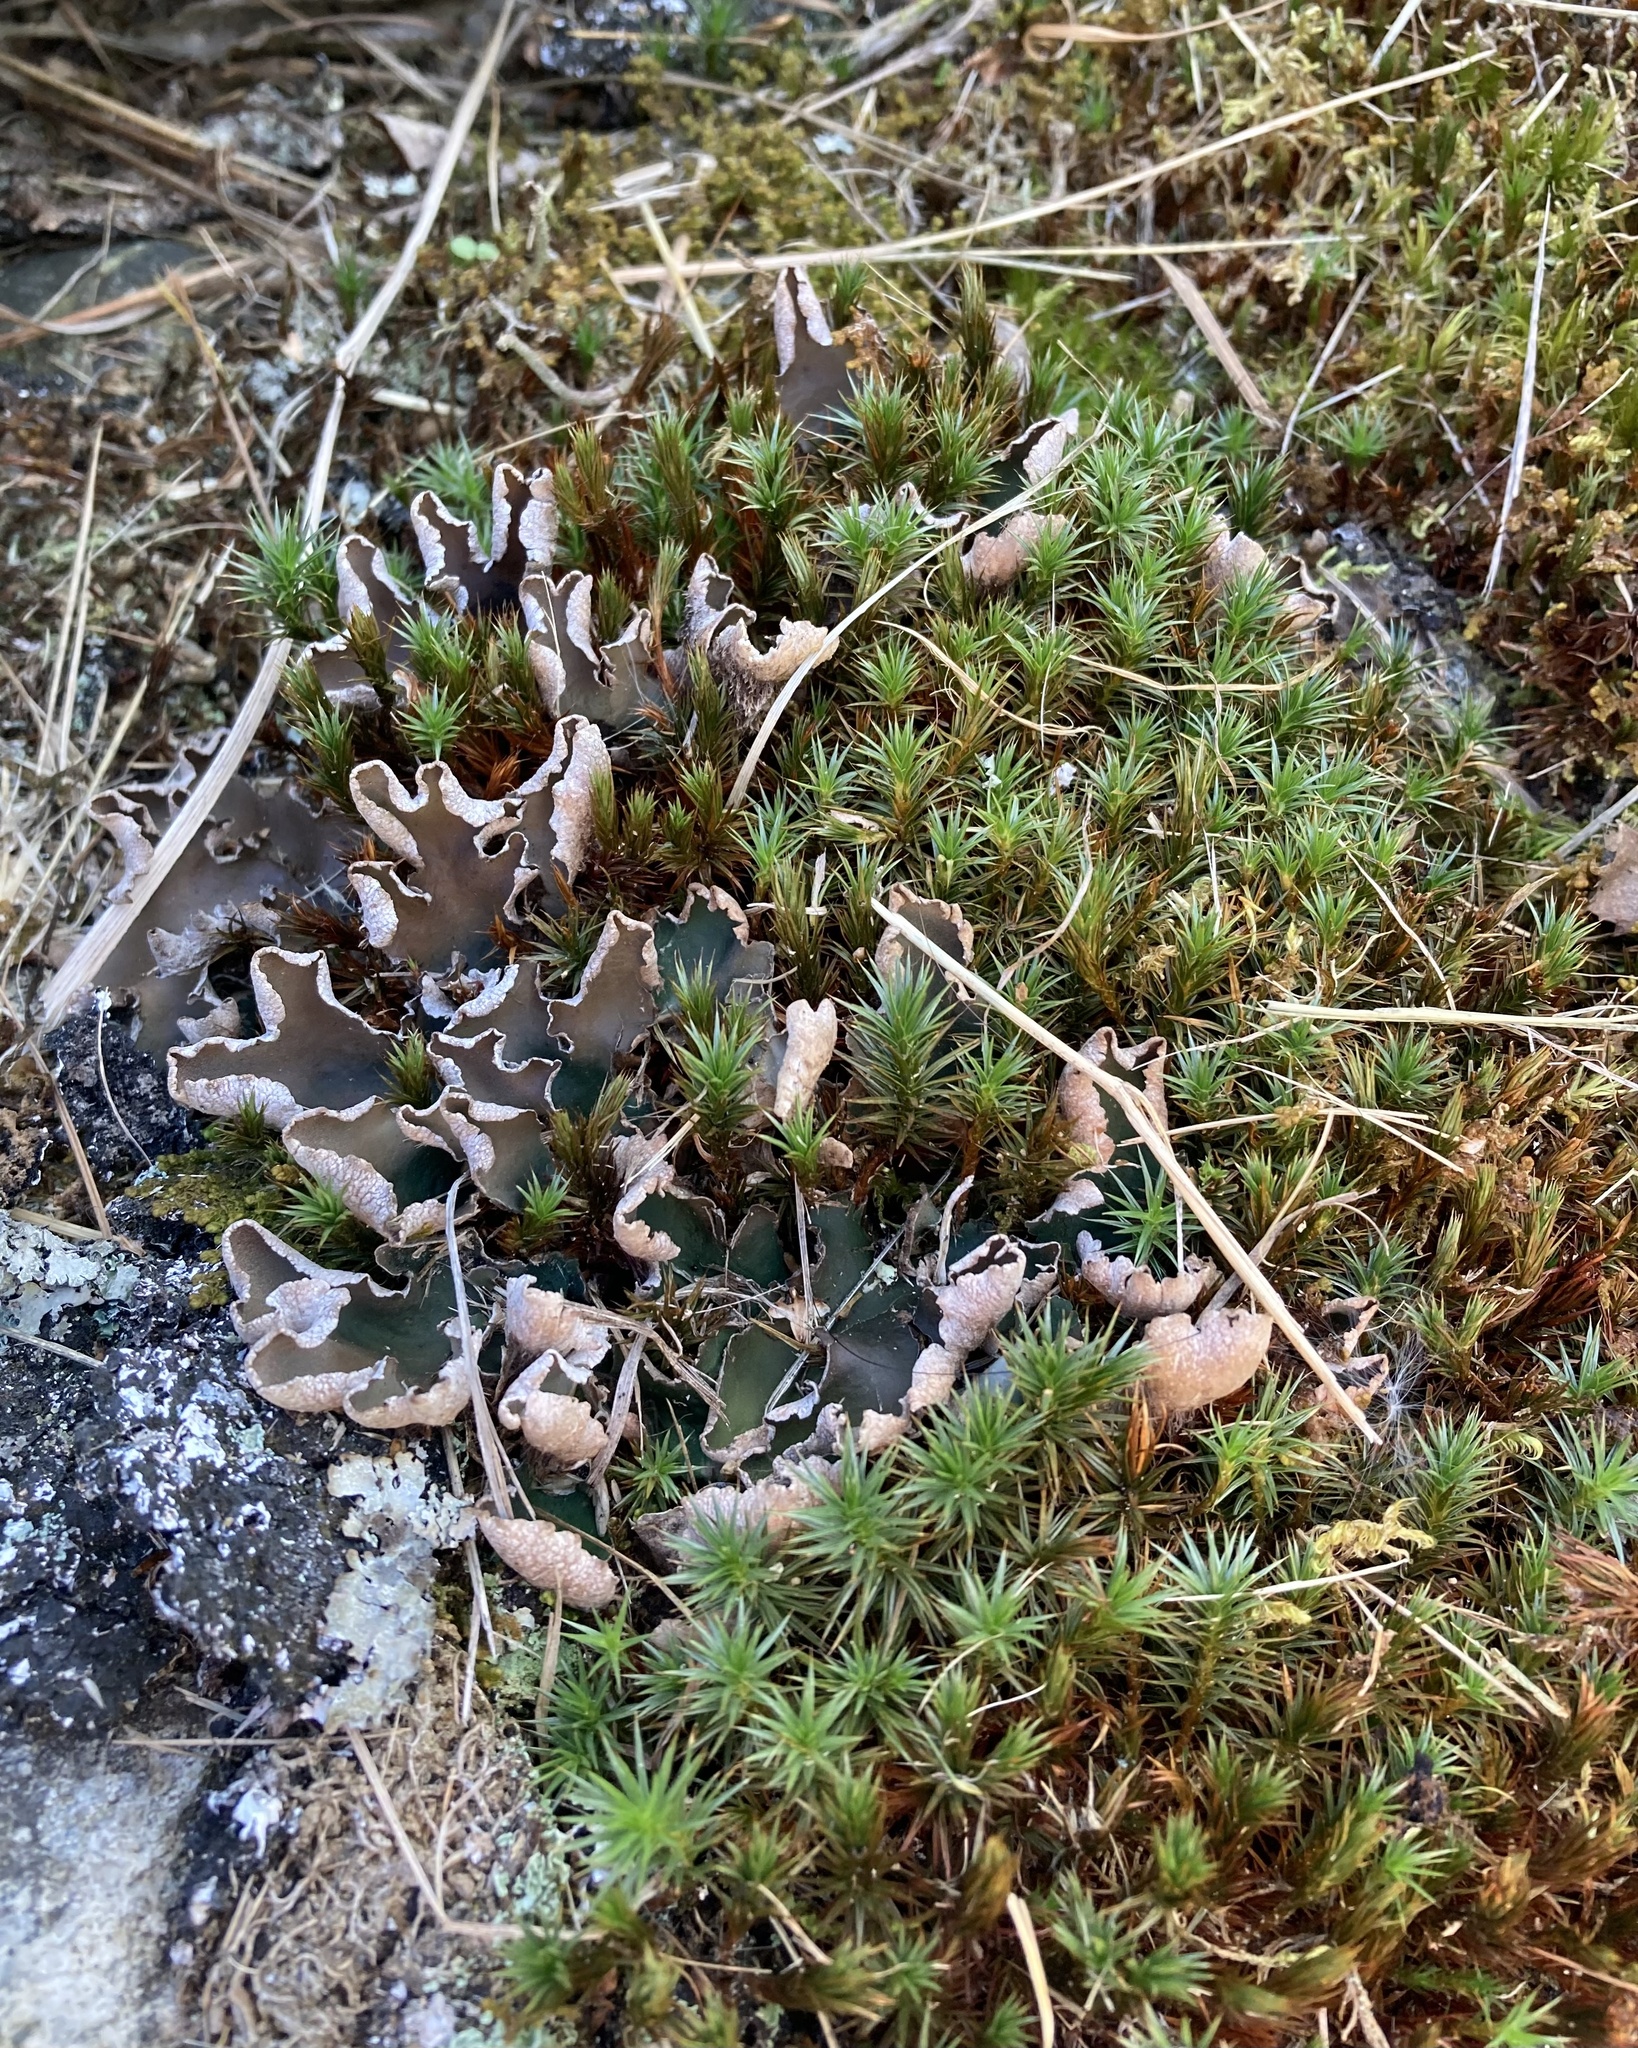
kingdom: Plantae
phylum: Bryophyta
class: Polytrichopsida
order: Polytrichales
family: Polytrichaceae
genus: Polytrichum
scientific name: Polytrichum juniperinum
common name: Juniper haircap moss
